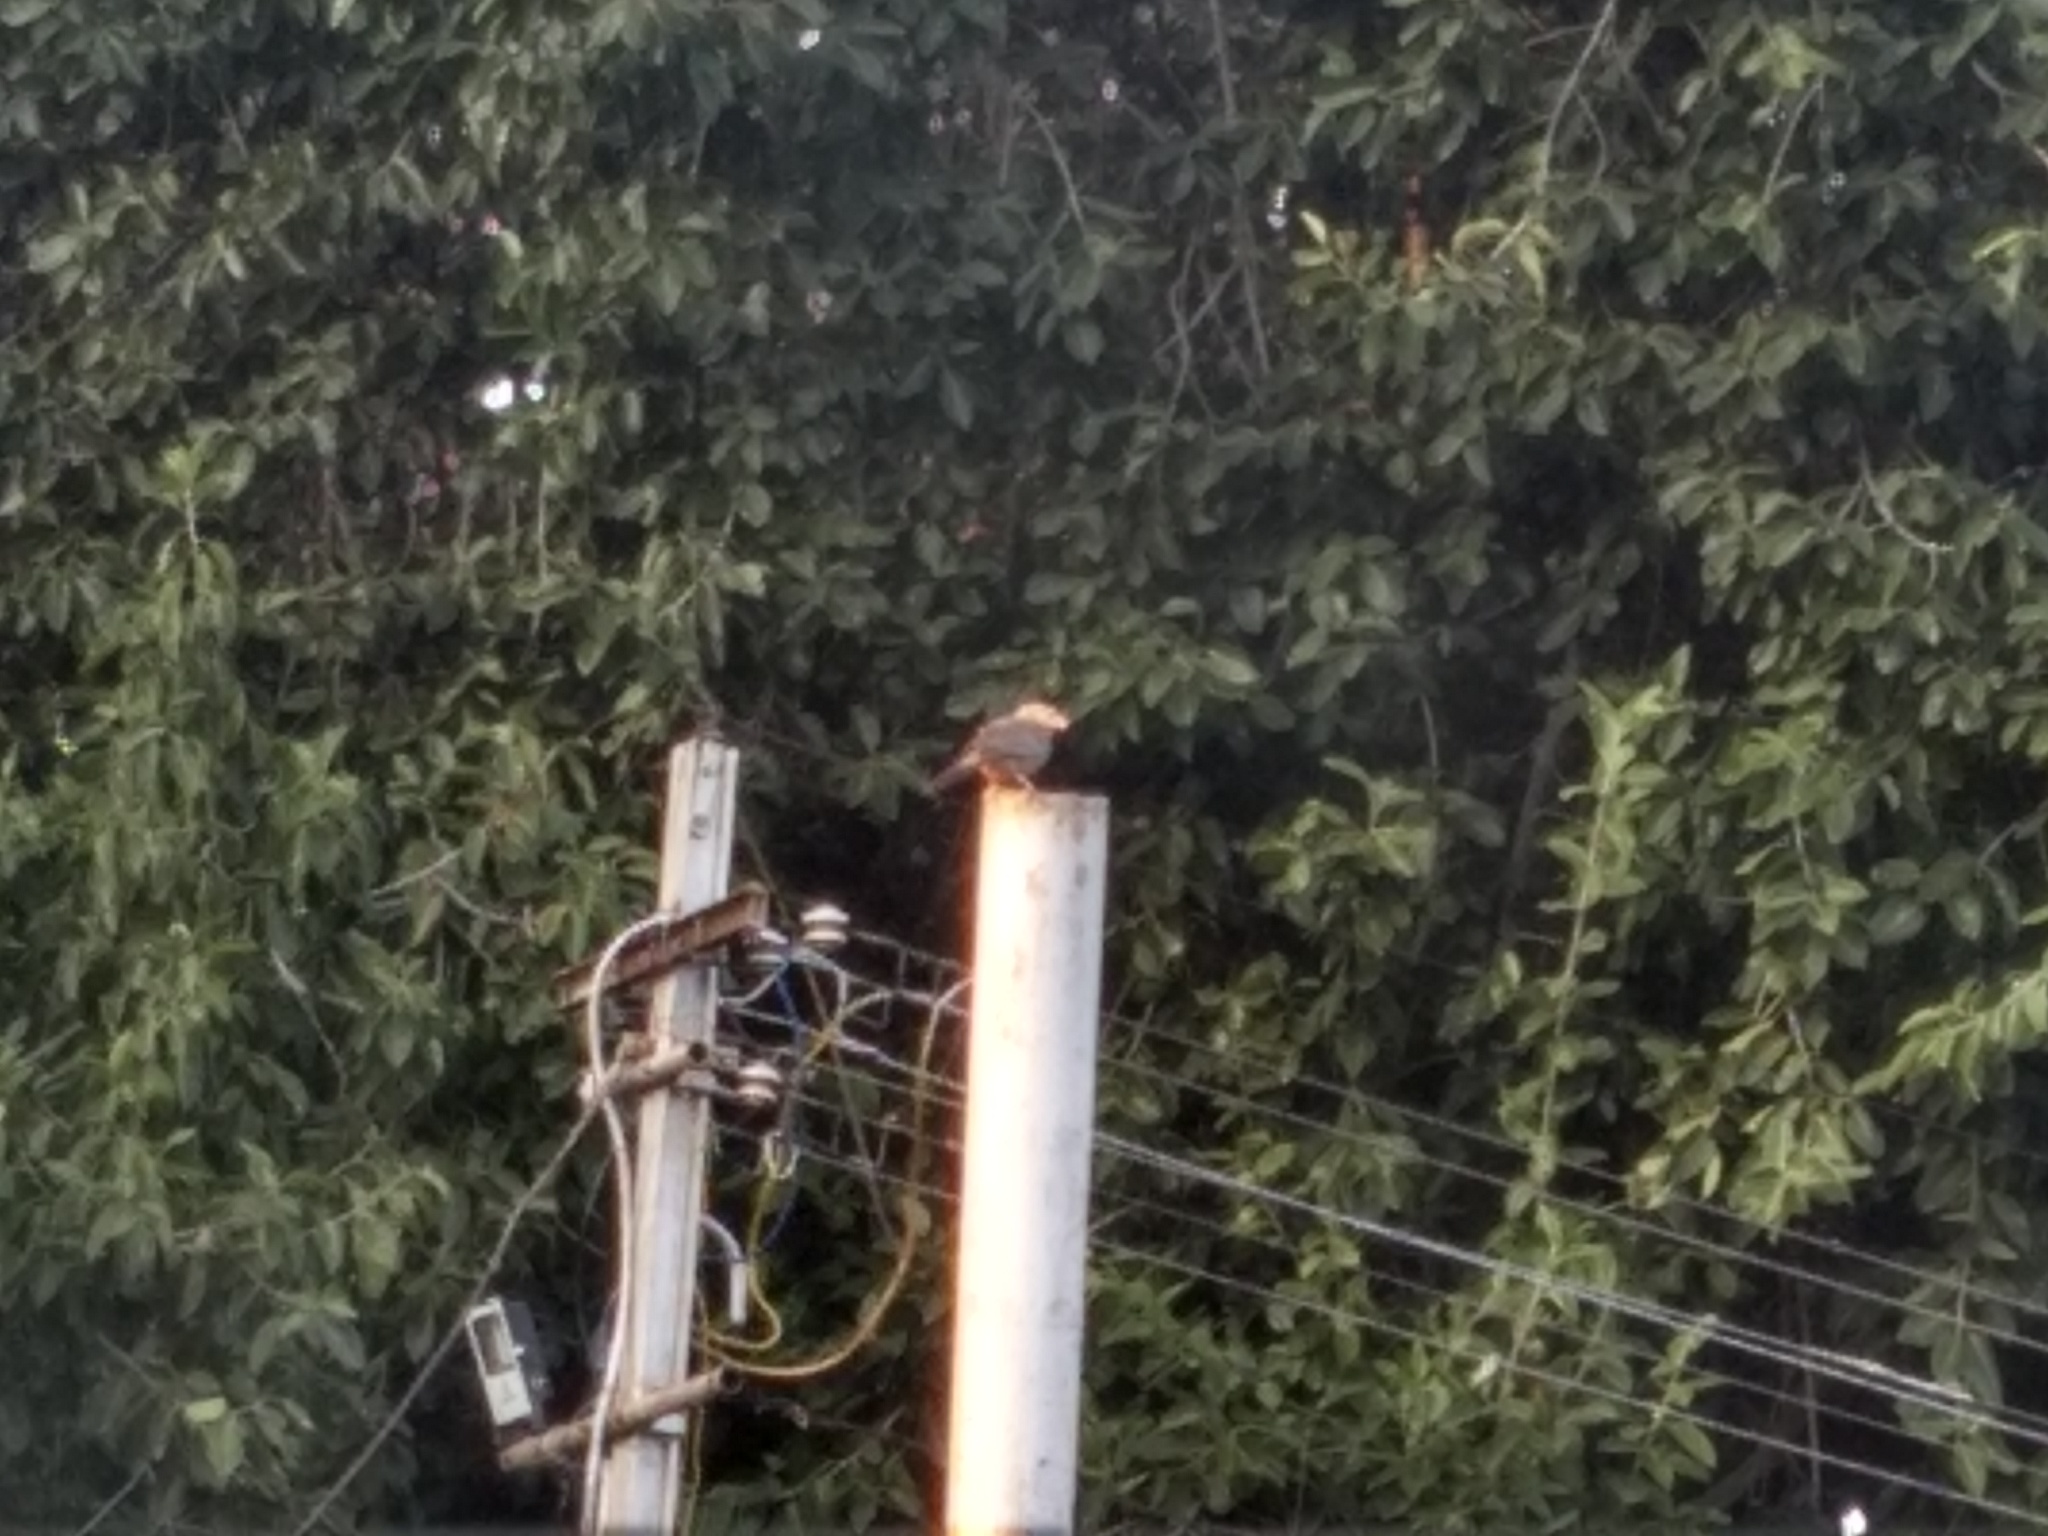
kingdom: Animalia
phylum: Chordata
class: Aves
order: Passeriformes
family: Leiothrichidae
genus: Turdoides
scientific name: Turdoides affinis
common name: Yellow-billed babbler
